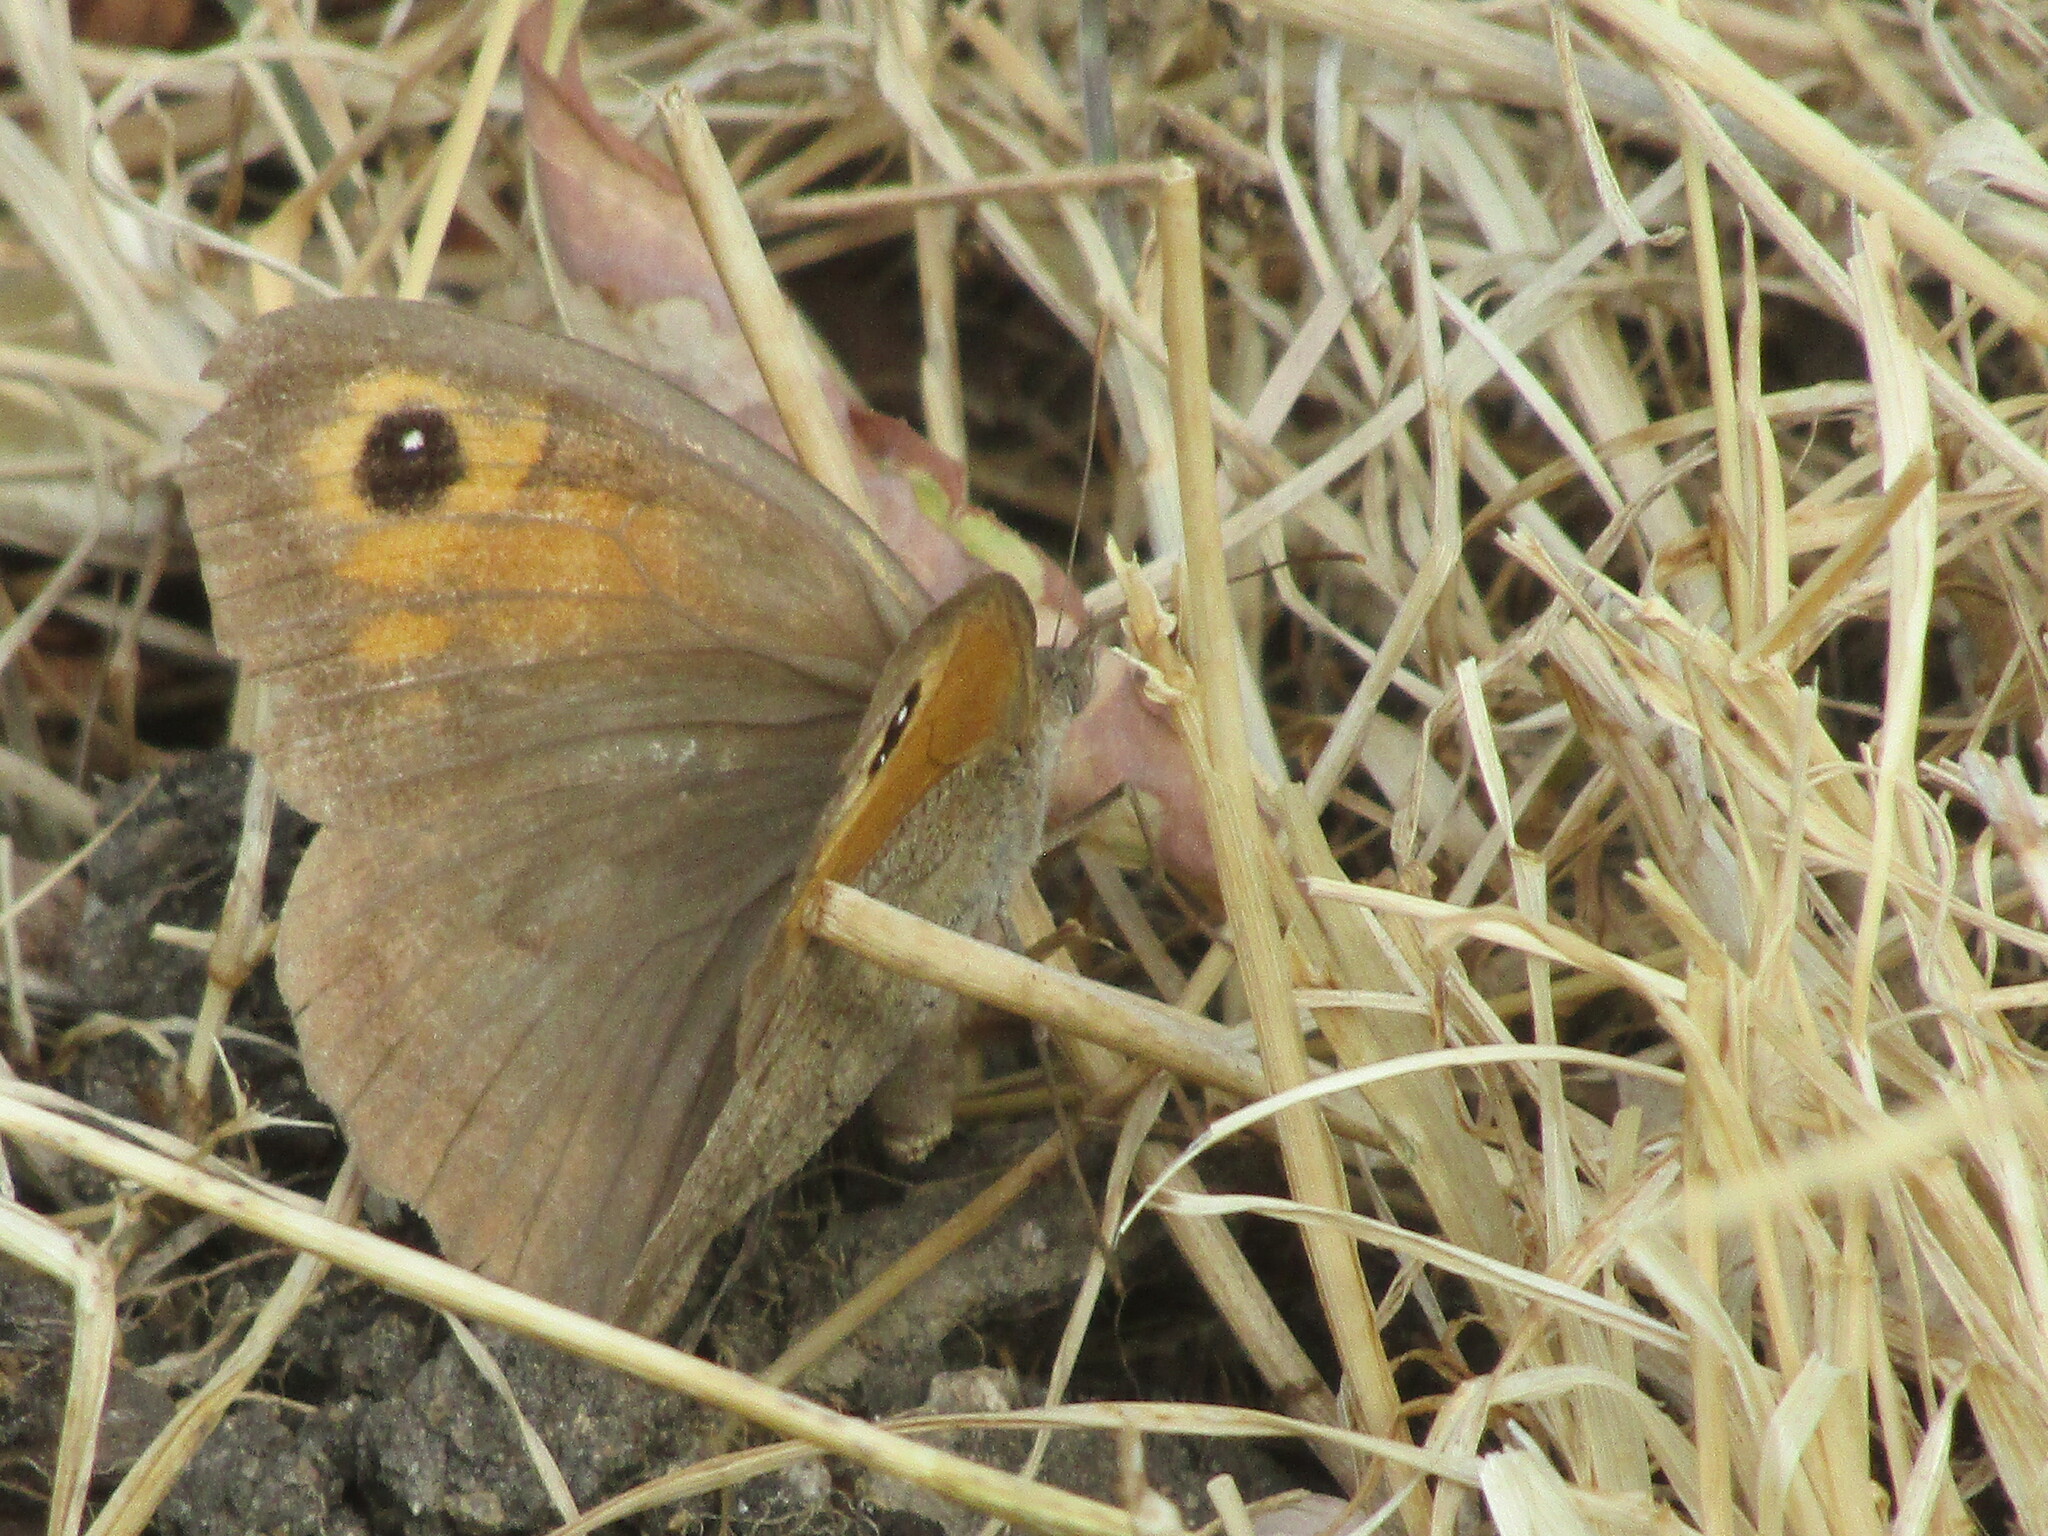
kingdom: Animalia
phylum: Arthropoda
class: Insecta
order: Lepidoptera
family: Nymphalidae
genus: Maniola
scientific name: Maniola jurtina
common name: Meadow brown
